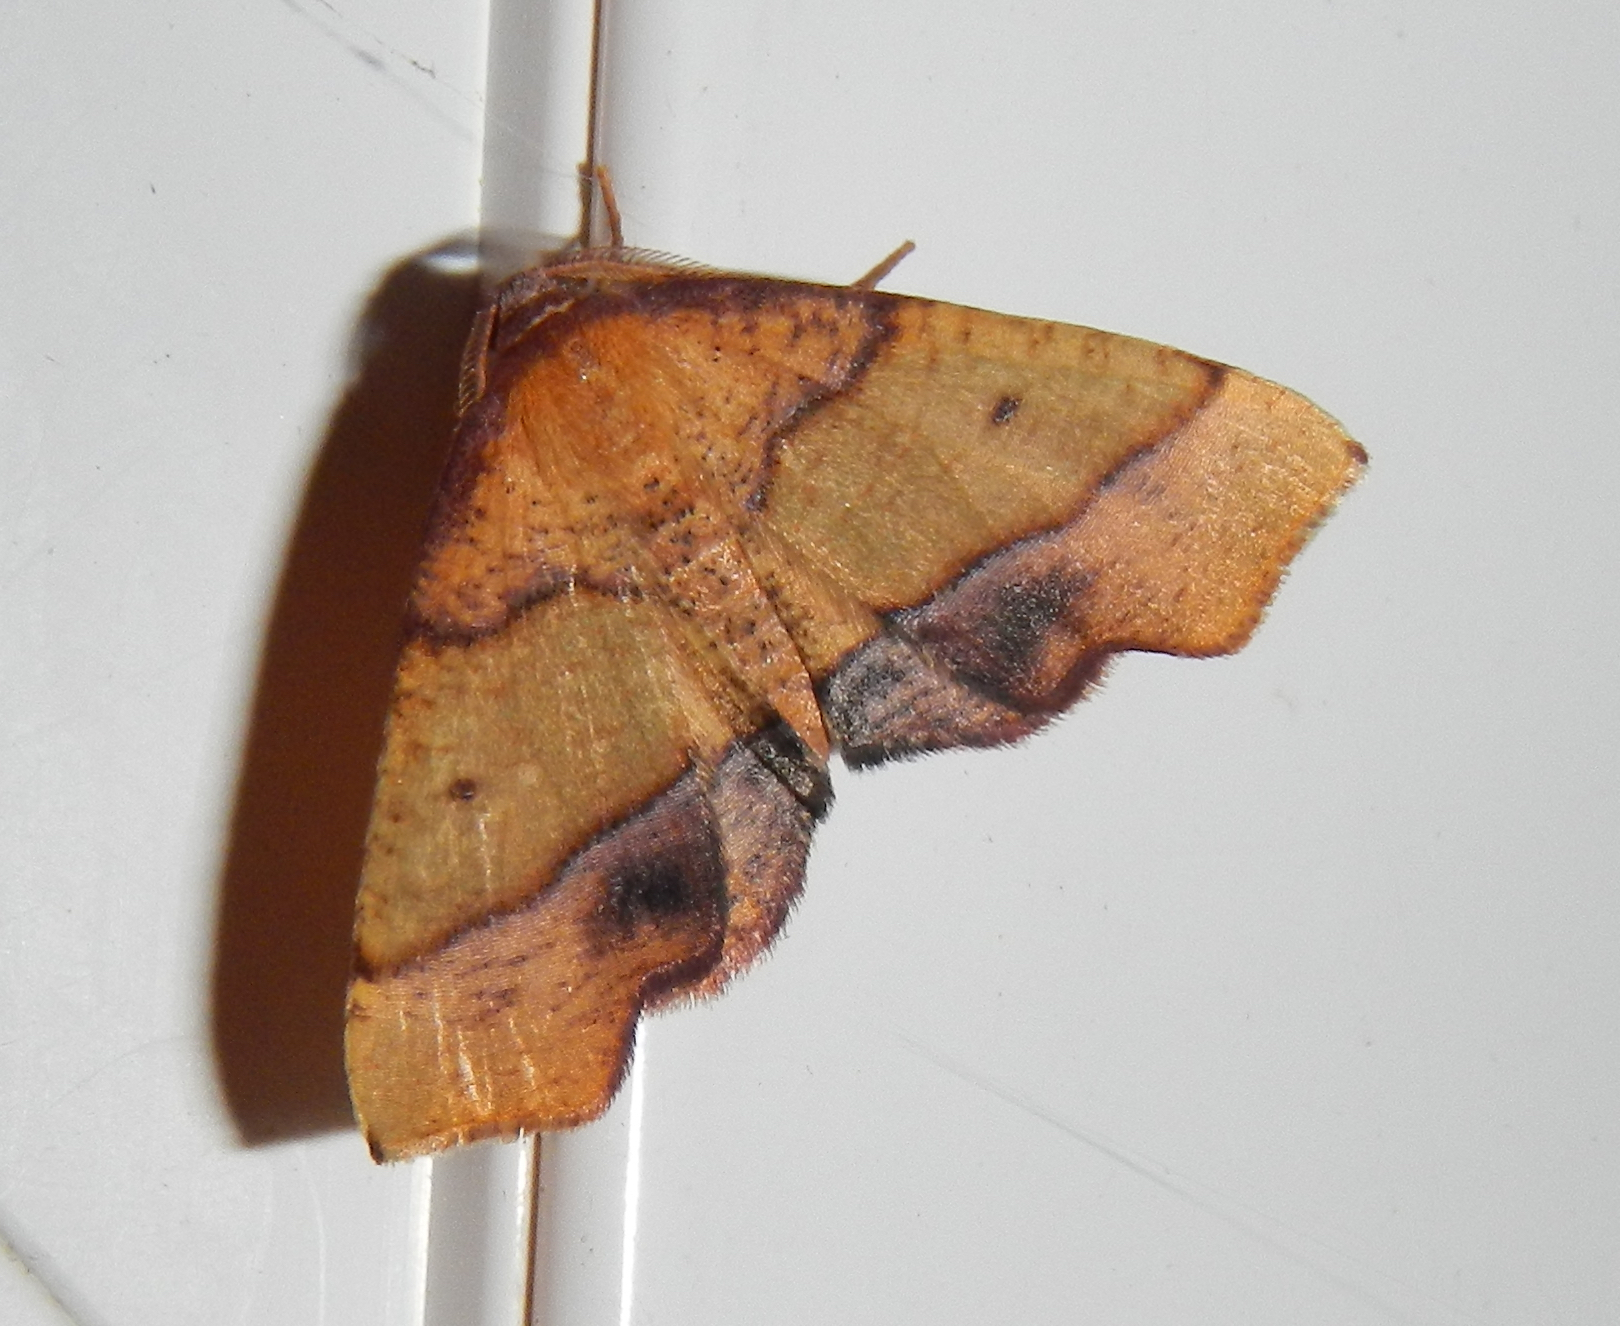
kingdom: Animalia
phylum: Arthropoda
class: Insecta
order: Lepidoptera
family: Geometridae
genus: Plagodis
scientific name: Plagodis phlogosaria
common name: Straight-lined plagodis
